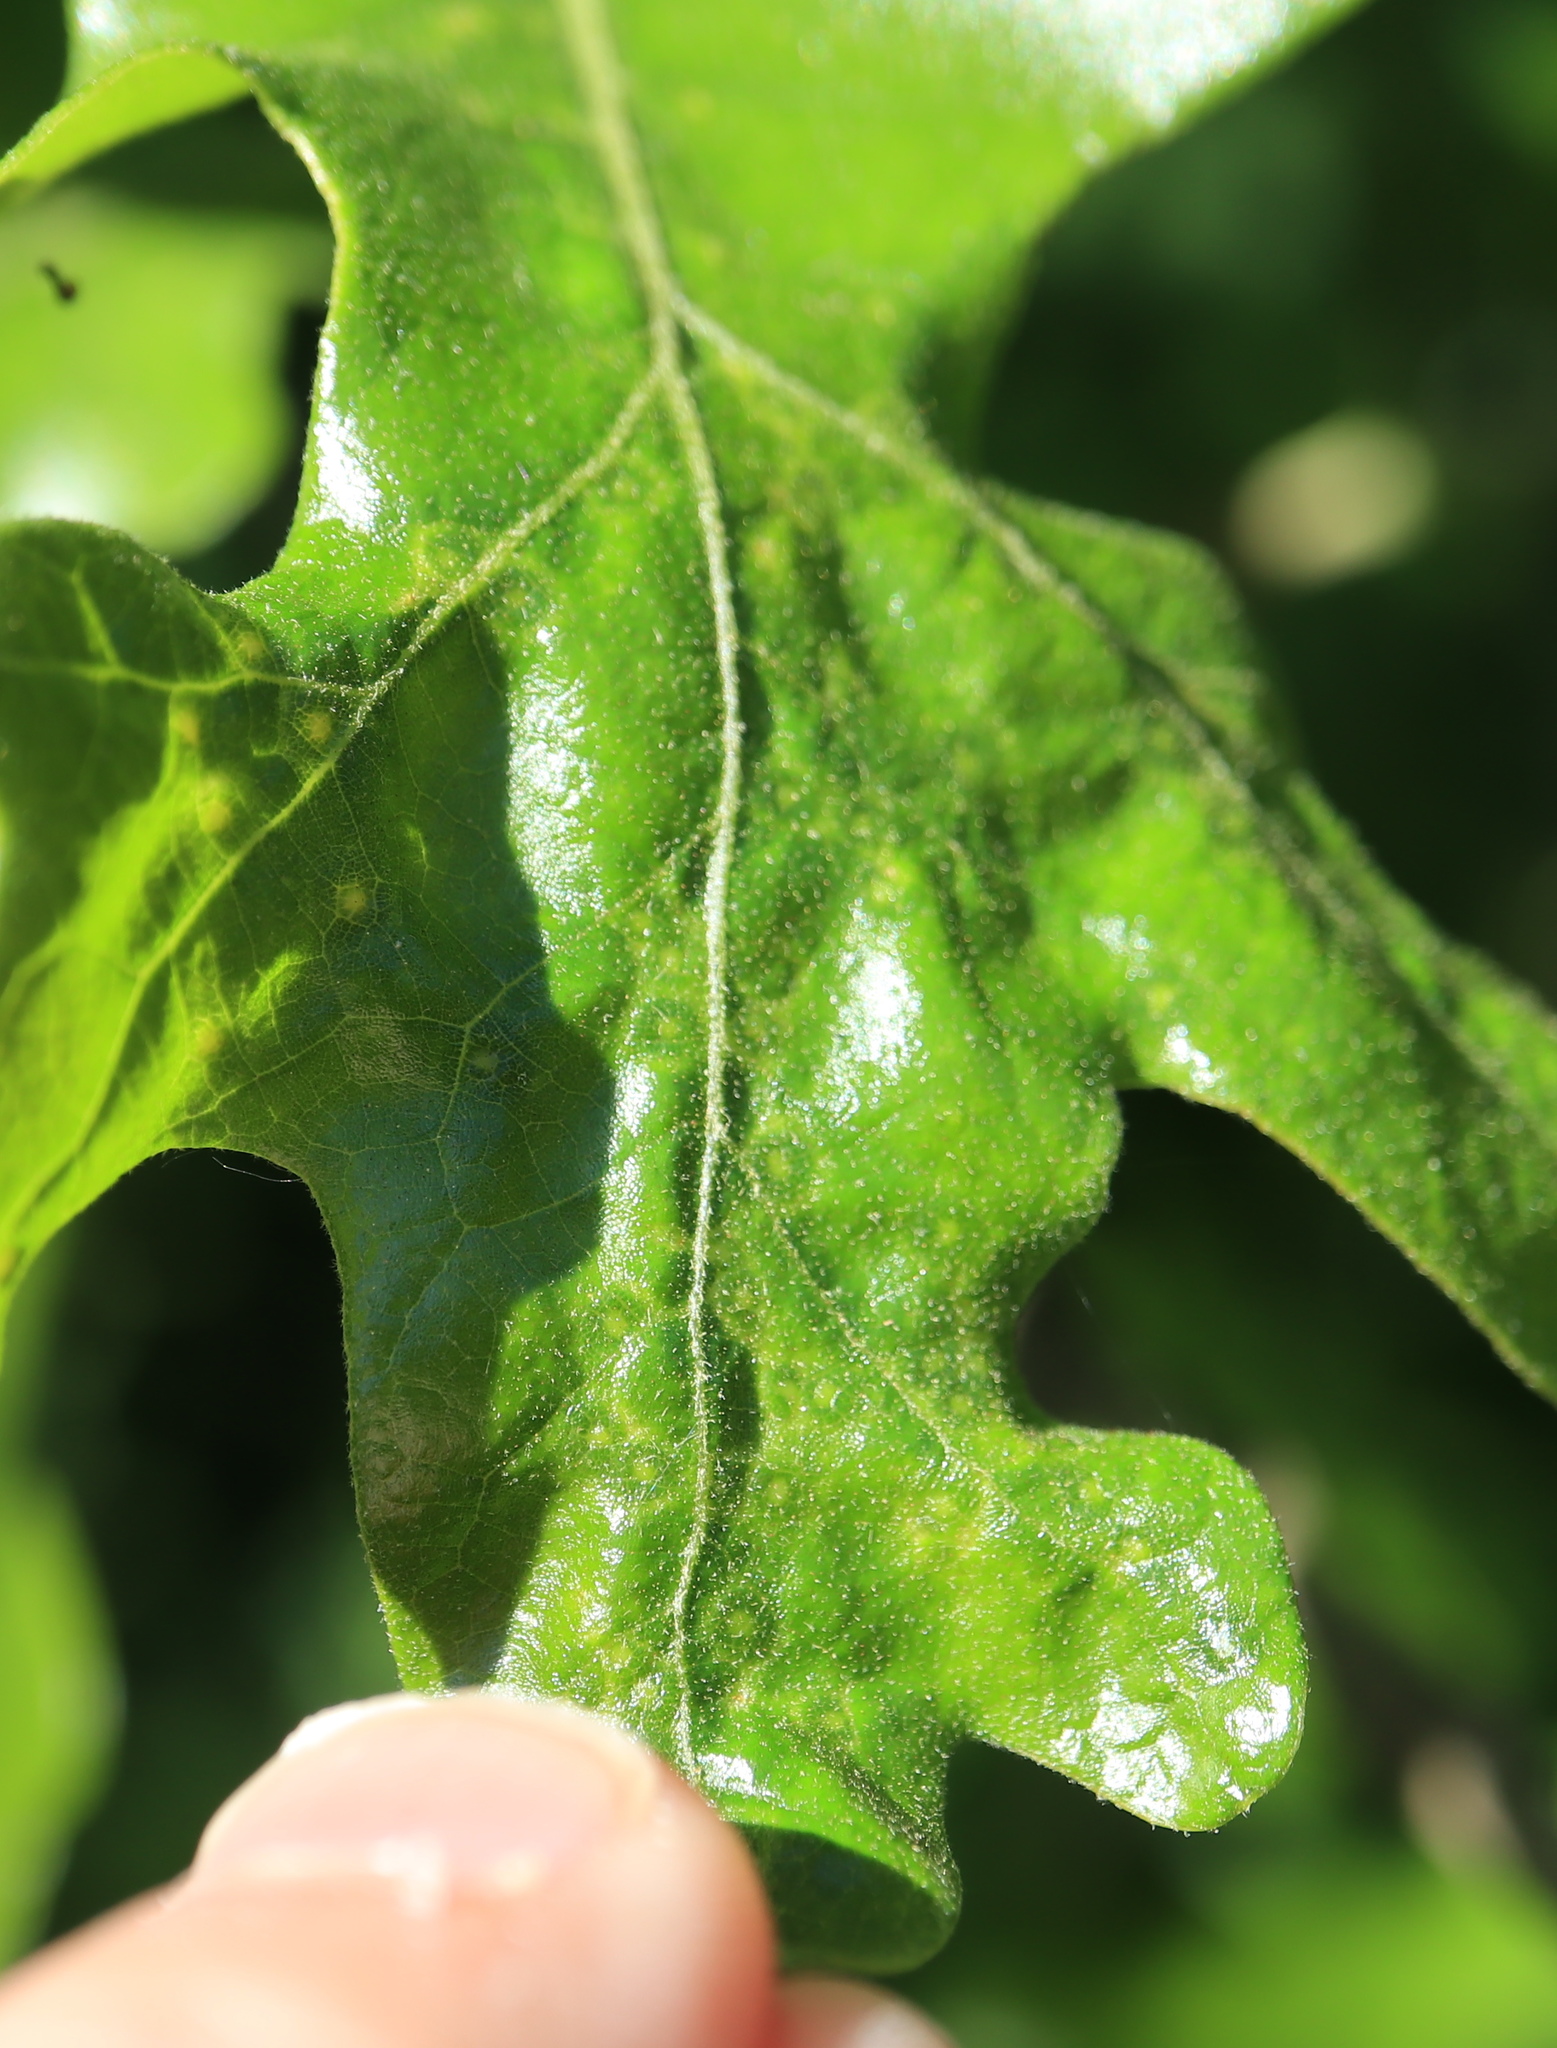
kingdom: Animalia
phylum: Arthropoda
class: Insecta
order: Hymenoptera
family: Cynipidae
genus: Neuroterus
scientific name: Neuroterus
